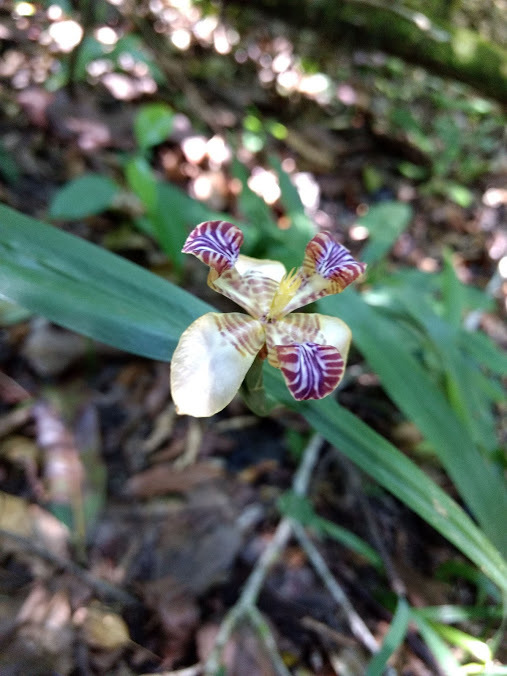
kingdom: Plantae
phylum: Tracheophyta
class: Liliopsida
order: Asparagales
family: Iridaceae
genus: Trimezia
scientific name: Trimezia variegata
